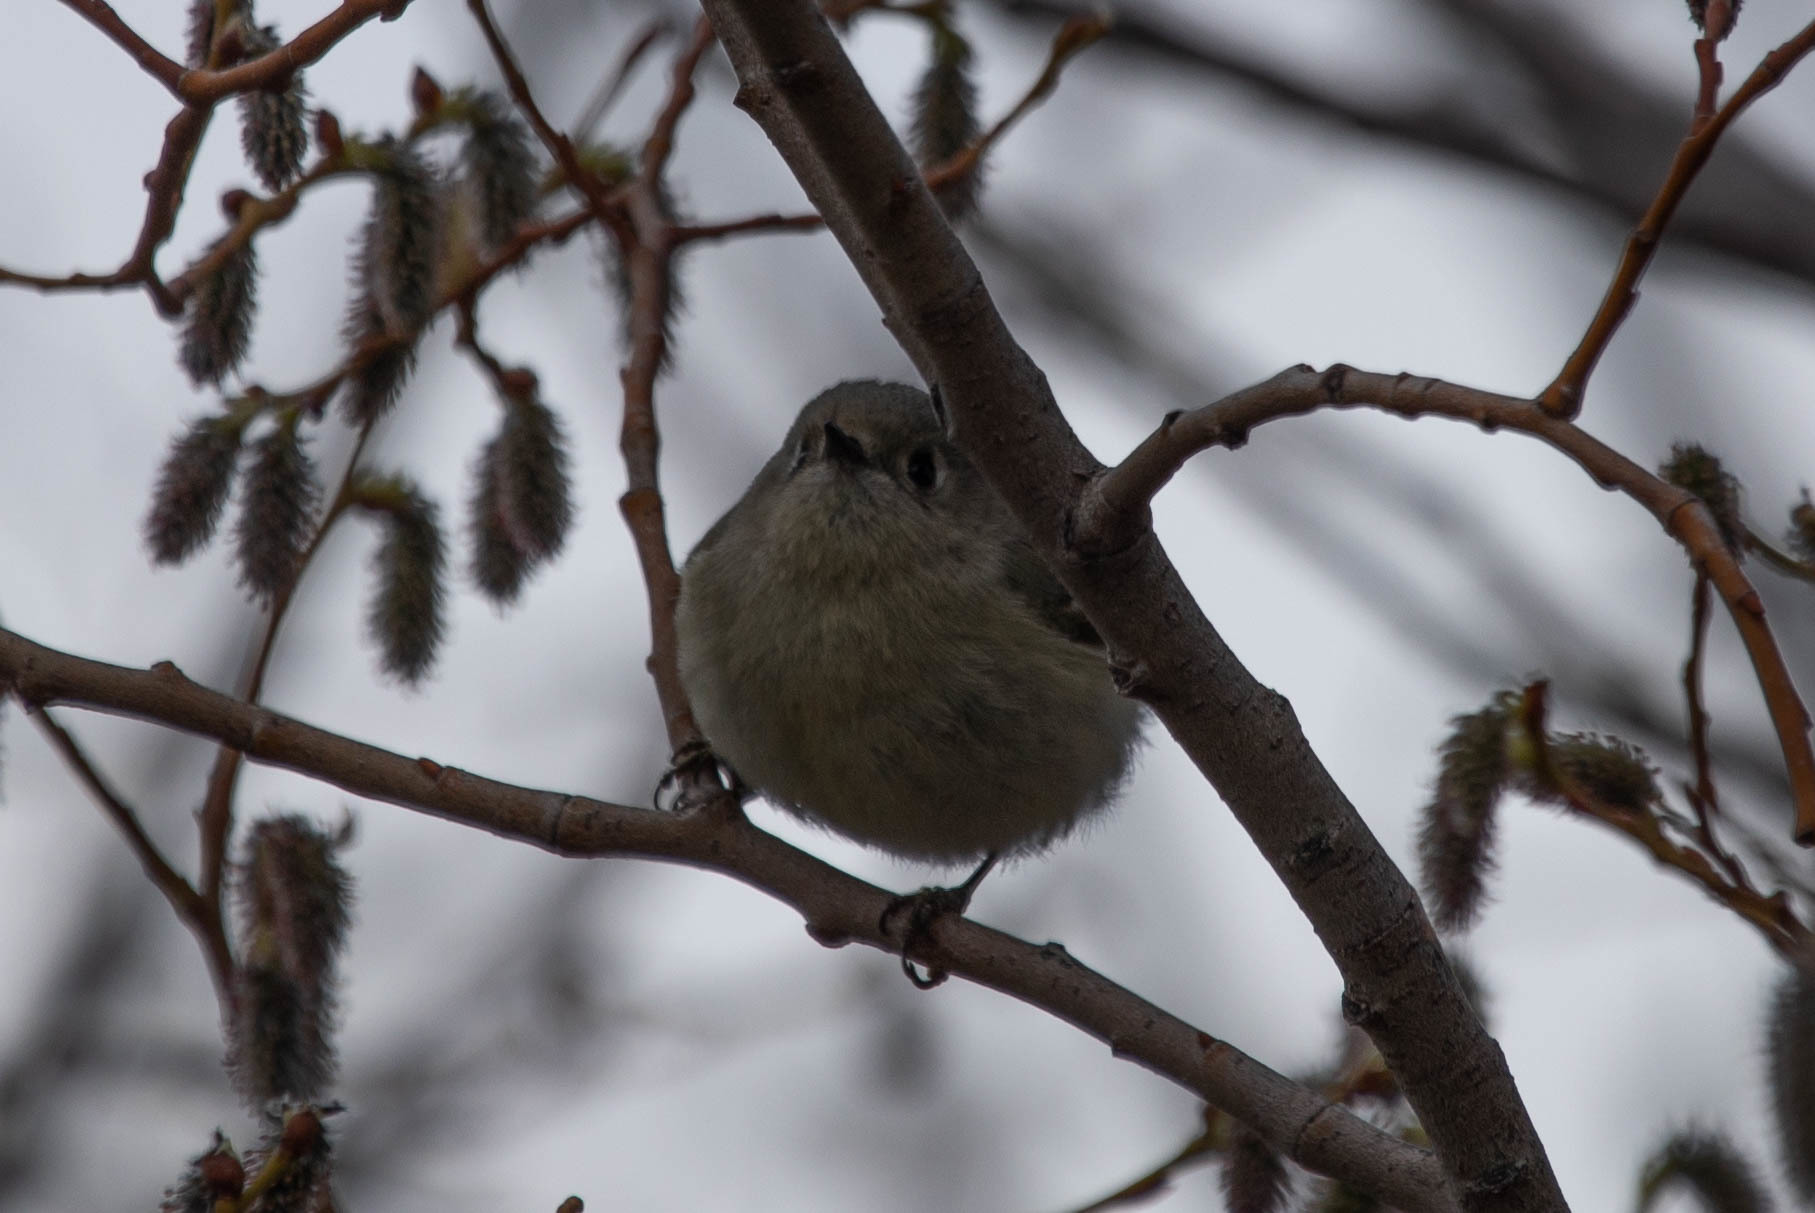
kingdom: Animalia
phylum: Chordata
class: Aves
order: Passeriformes
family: Regulidae
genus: Regulus
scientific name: Regulus calendula
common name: Ruby-crowned kinglet
